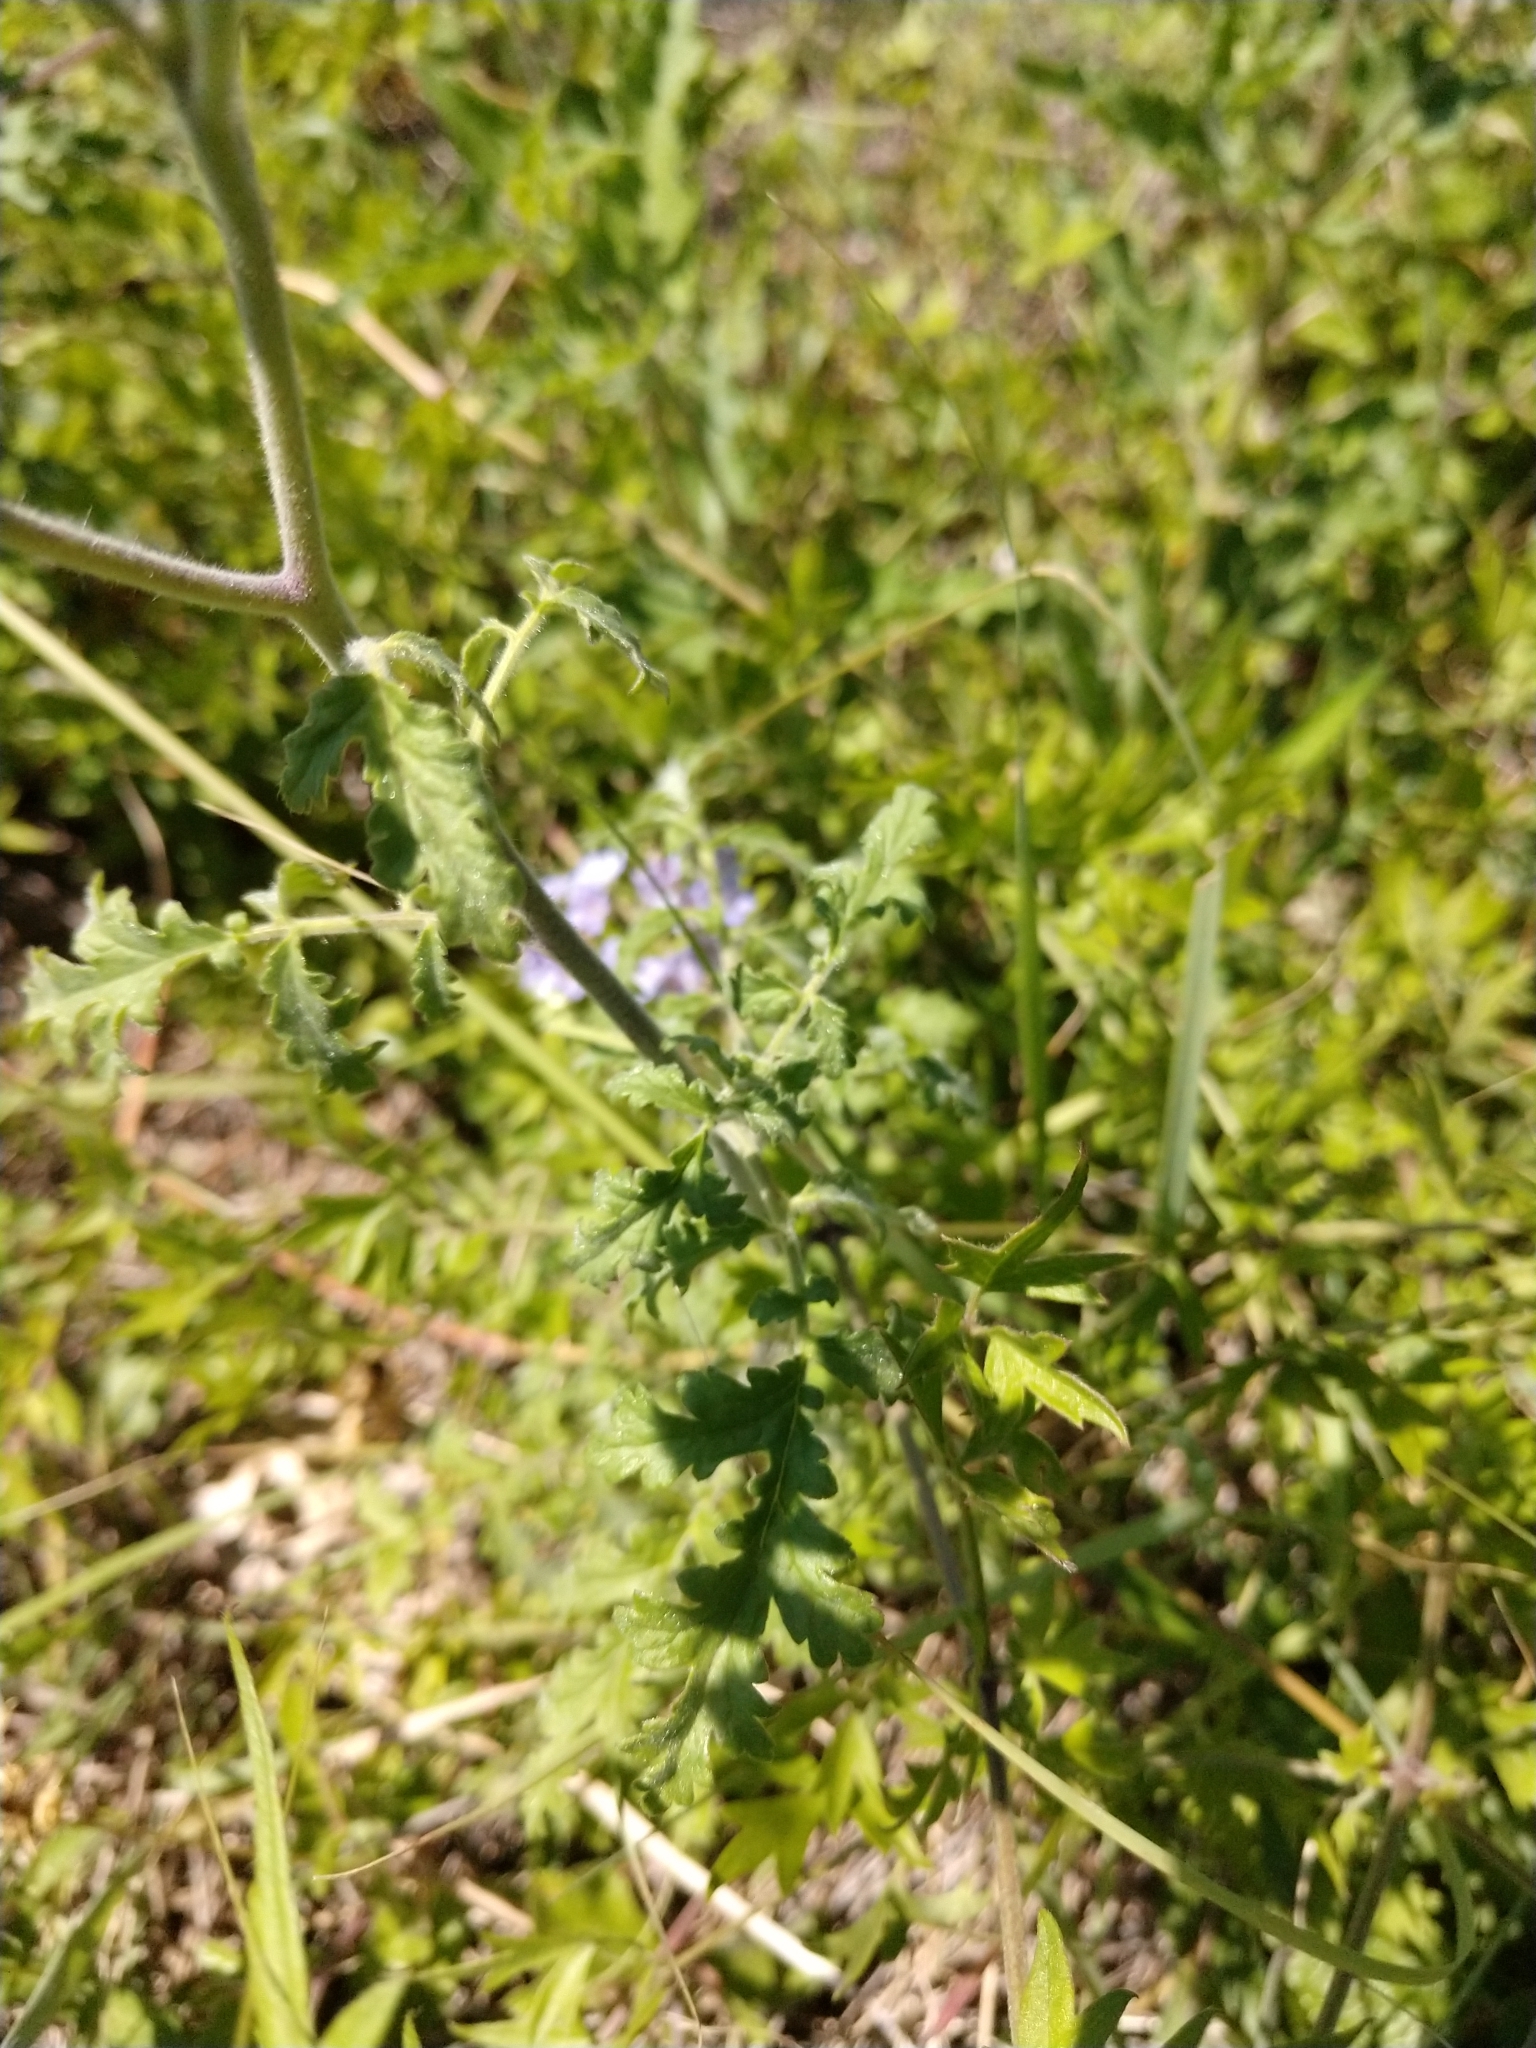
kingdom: Plantae
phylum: Tracheophyta
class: Magnoliopsida
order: Boraginales
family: Hydrophyllaceae
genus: Phacelia
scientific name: Phacelia congesta
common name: Blue curls
